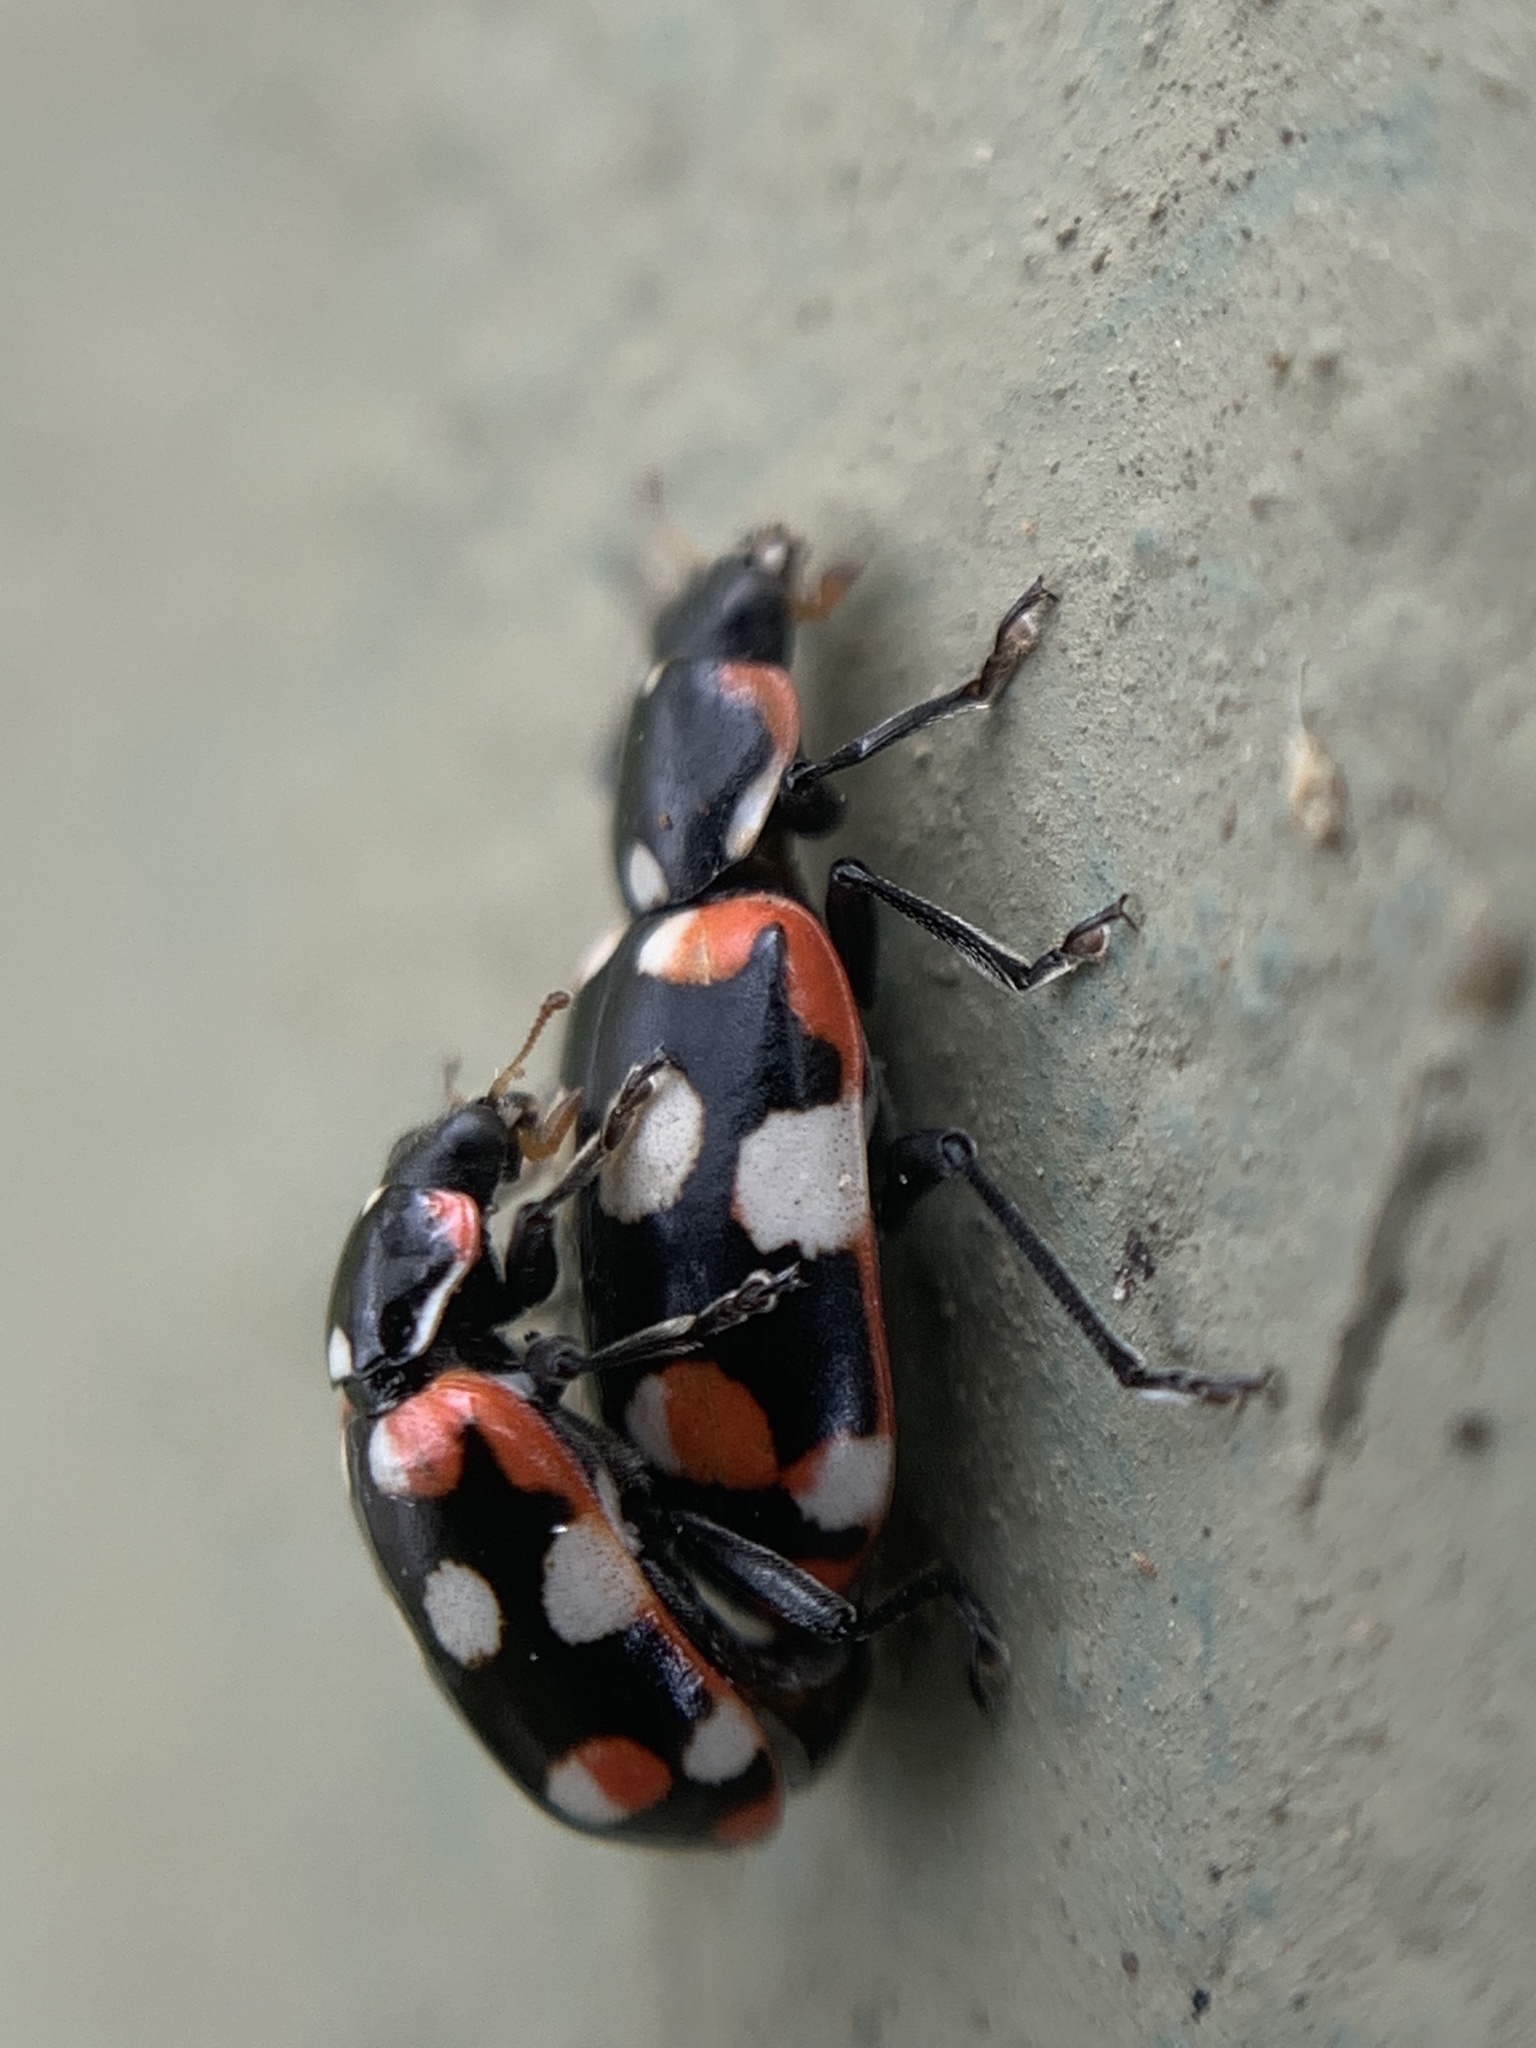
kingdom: Animalia
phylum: Arthropoda
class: Insecta
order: Coleoptera
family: Coccinellidae
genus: Eriopis
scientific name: Eriopis connexa
